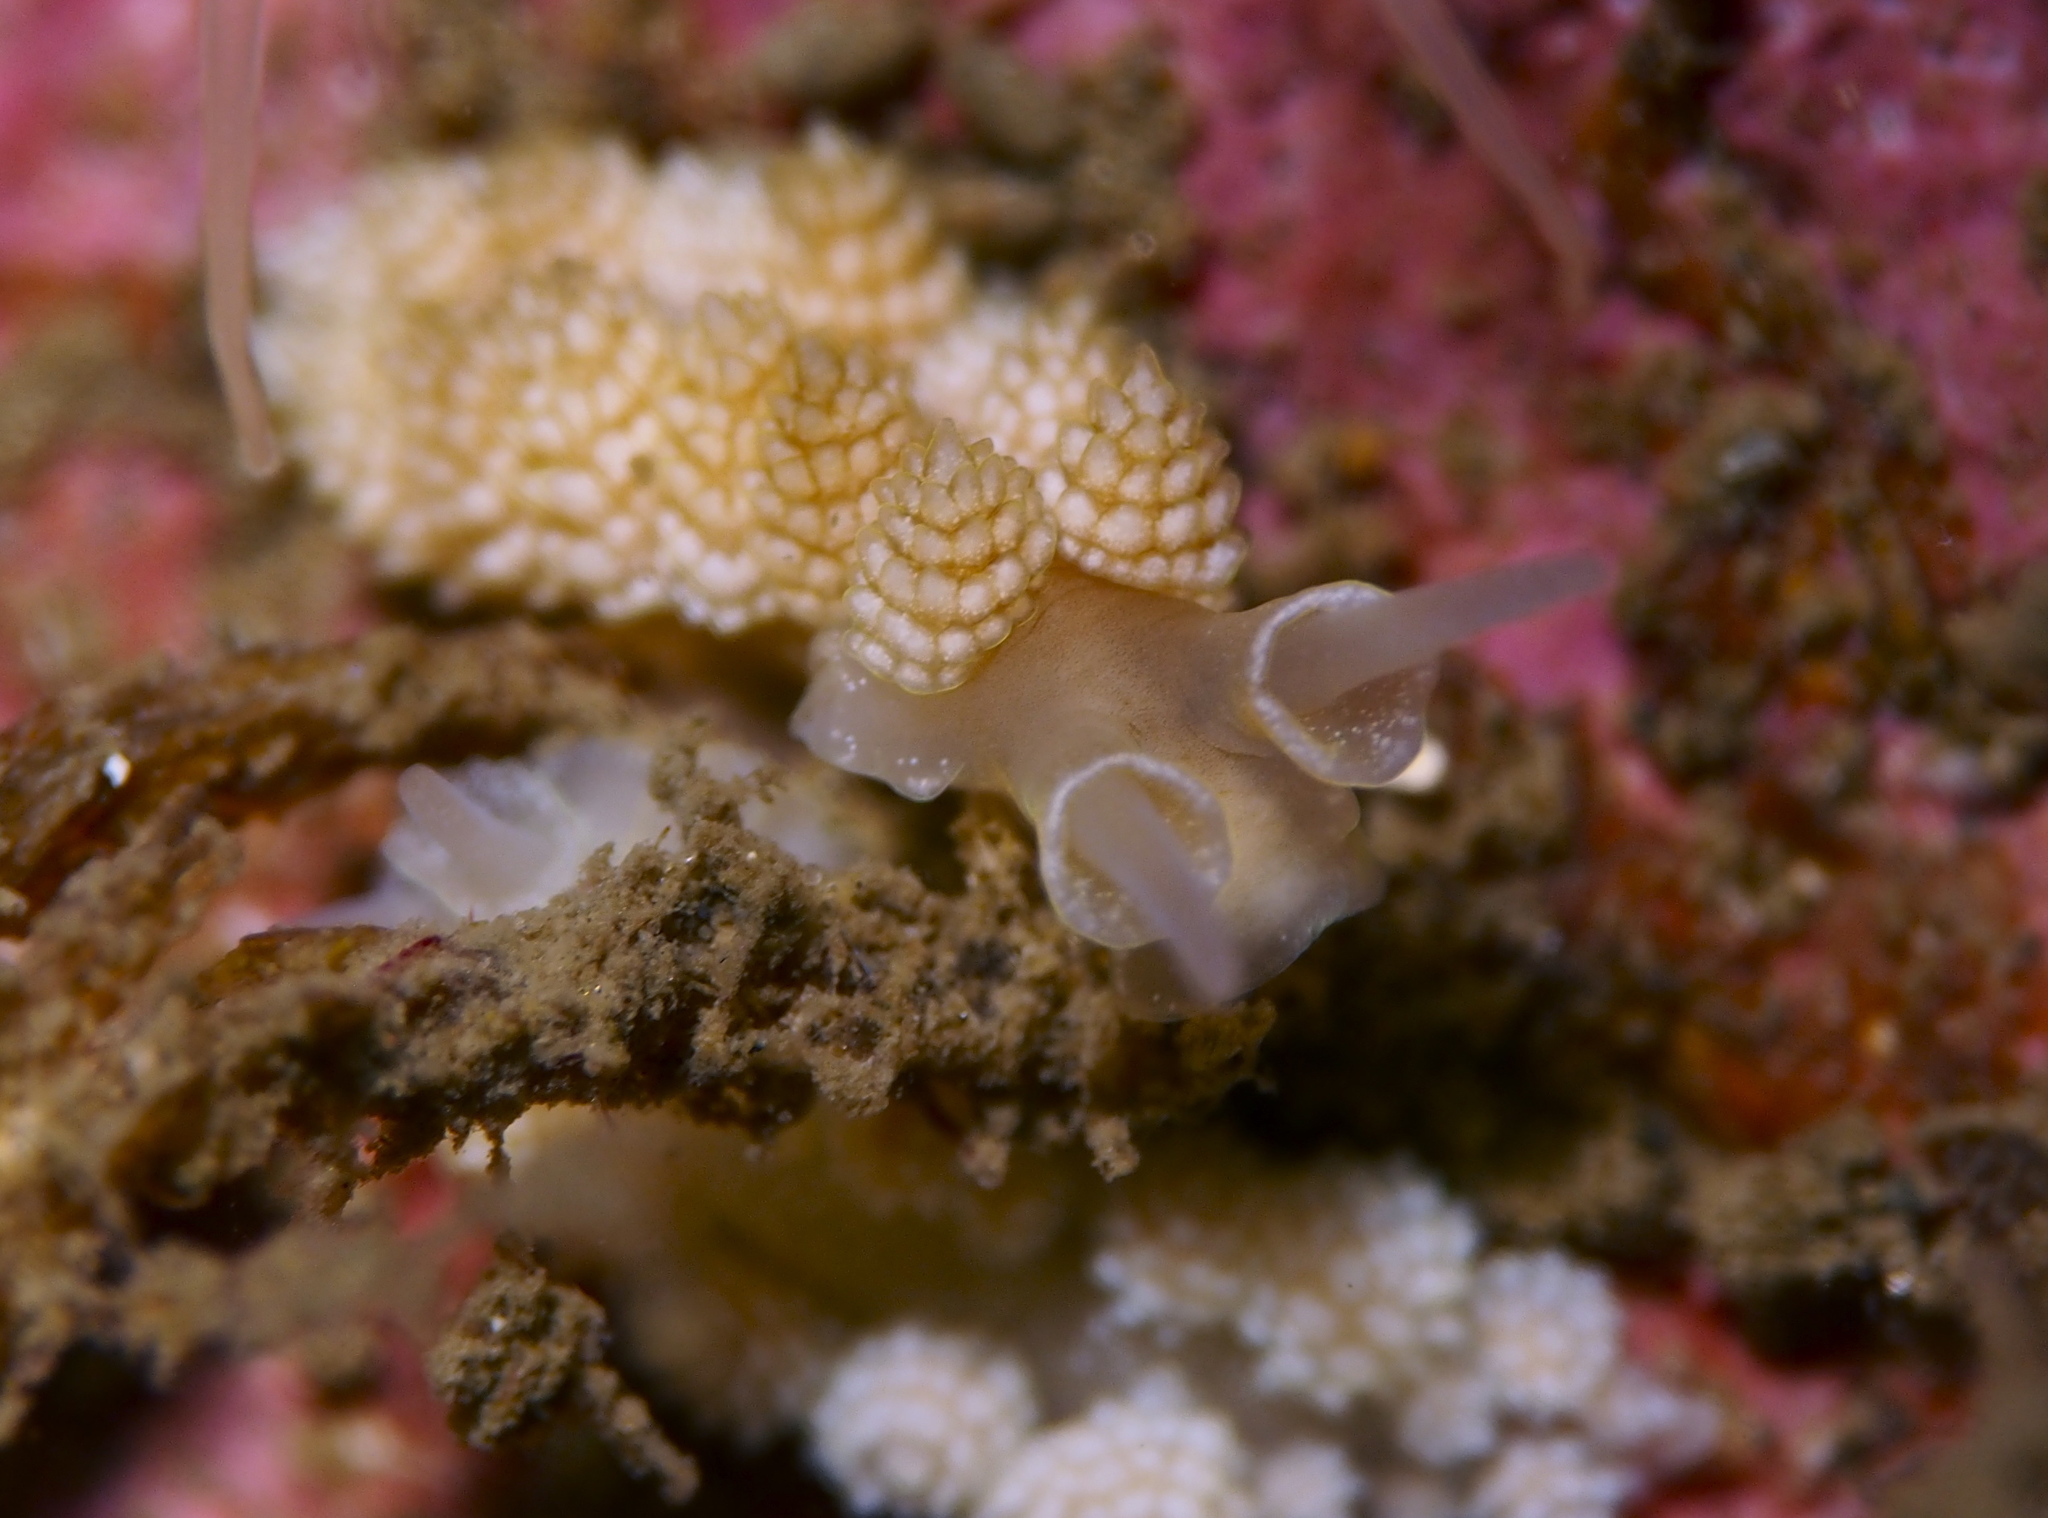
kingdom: Animalia
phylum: Mollusca
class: Gastropoda
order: Nudibranchia
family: Dotidae
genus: Doto
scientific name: Doto fragilis
